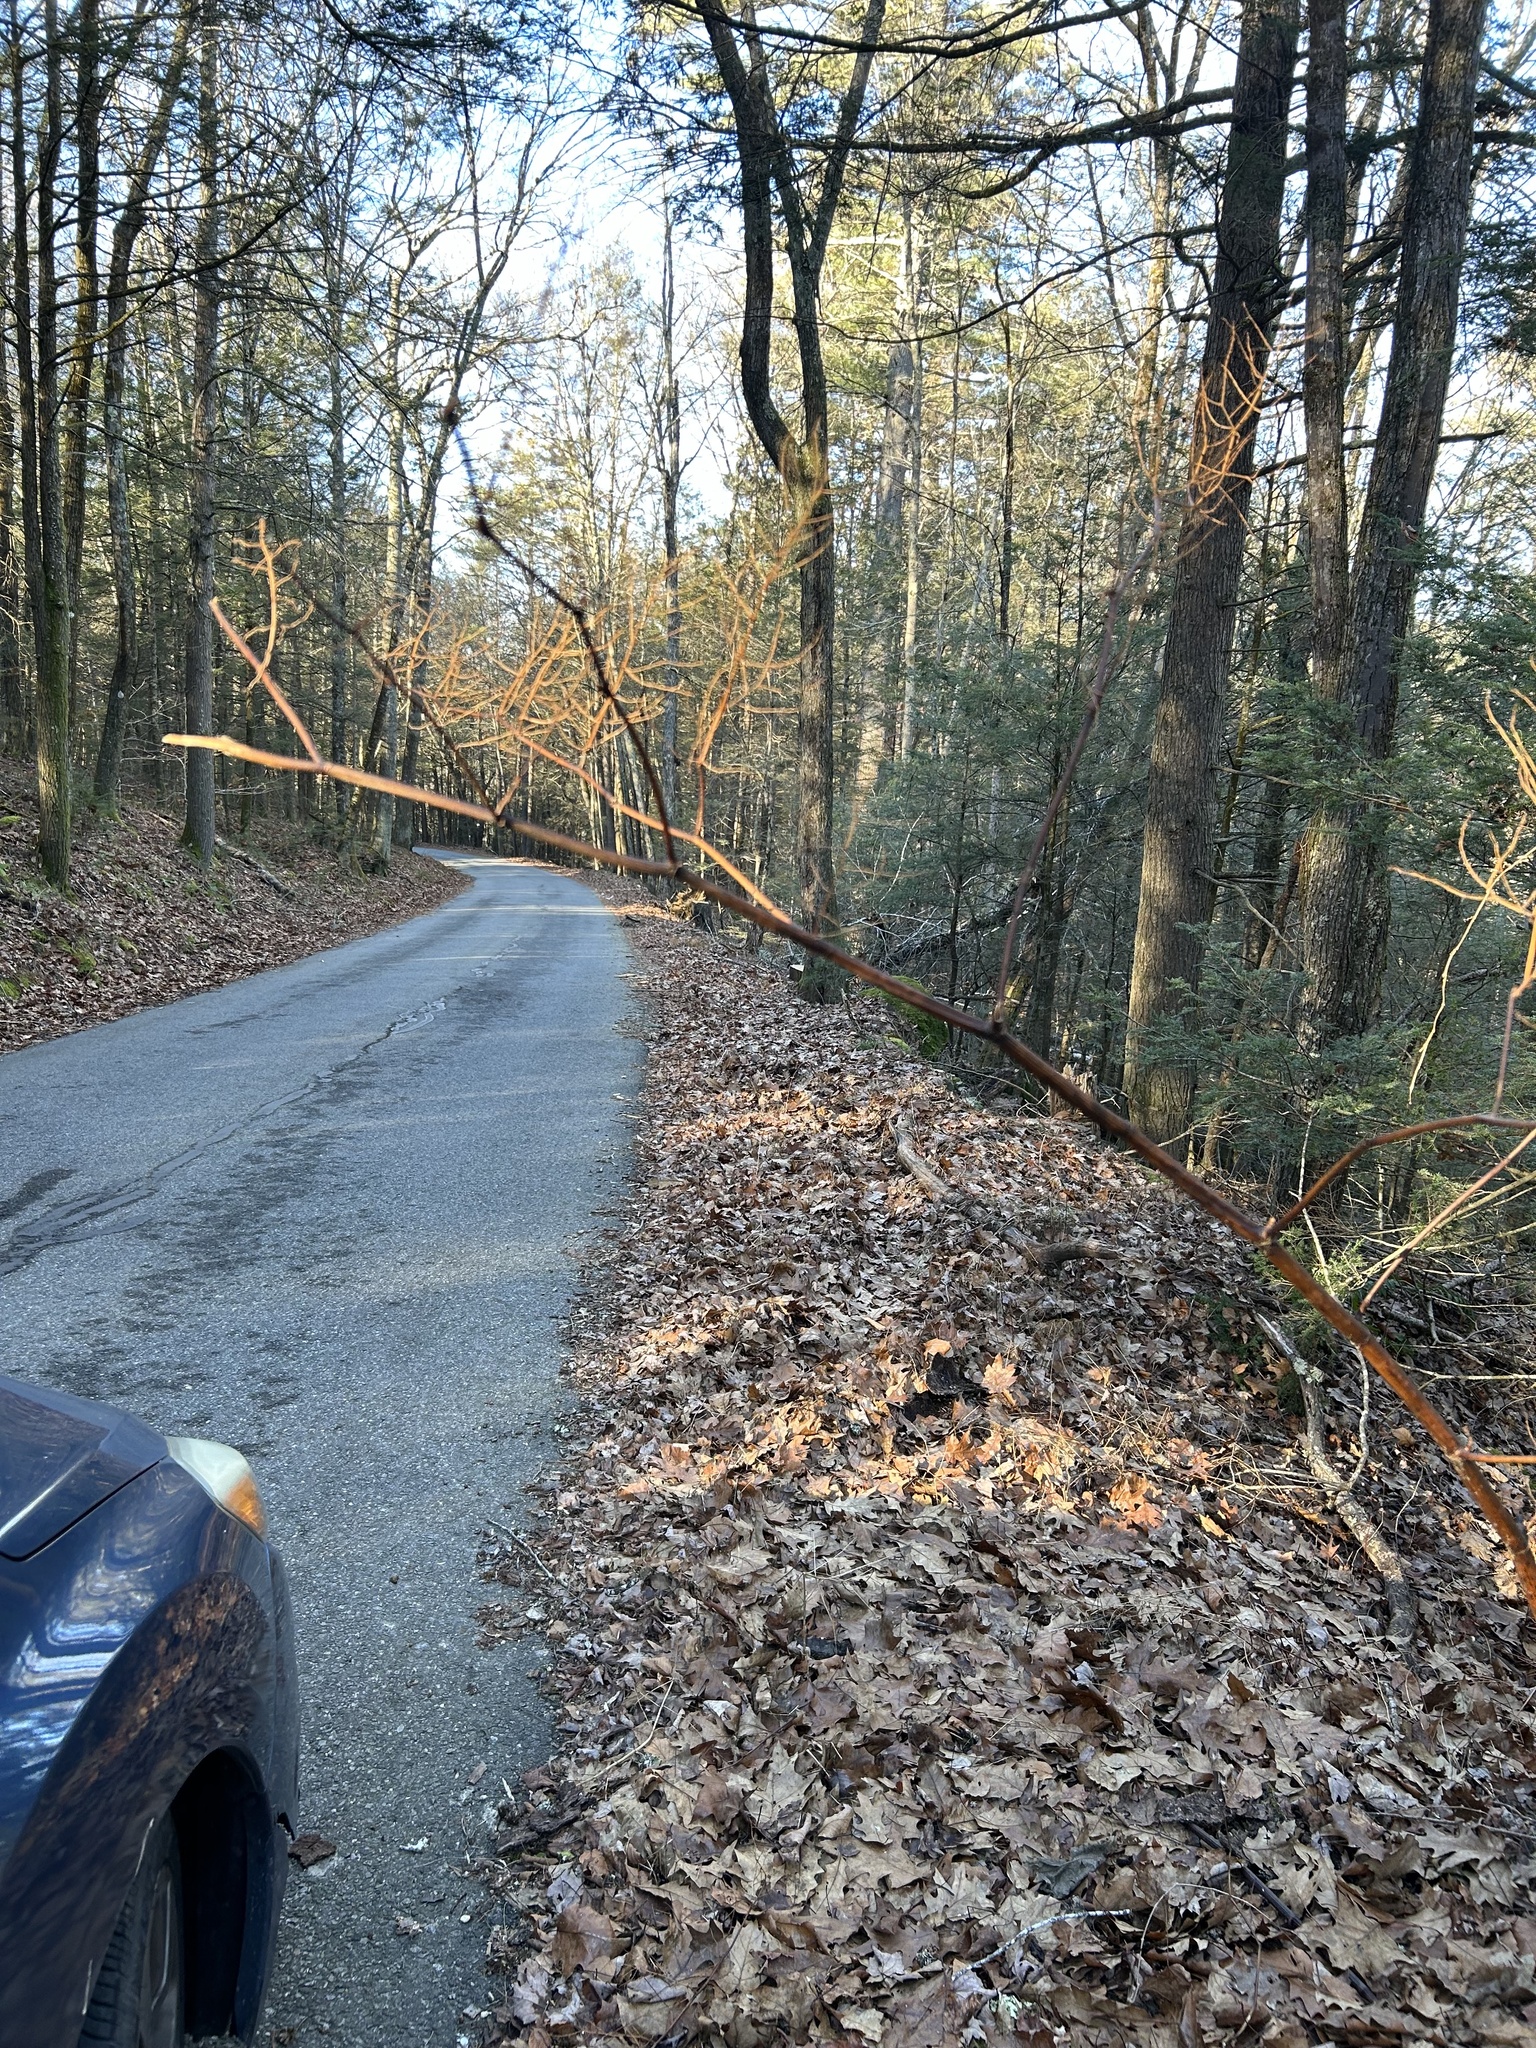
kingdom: Plantae
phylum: Tracheophyta
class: Magnoliopsida
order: Caryophyllales
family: Polygonaceae
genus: Reynoutria
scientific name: Reynoutria japonica
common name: Japanese knotweed
